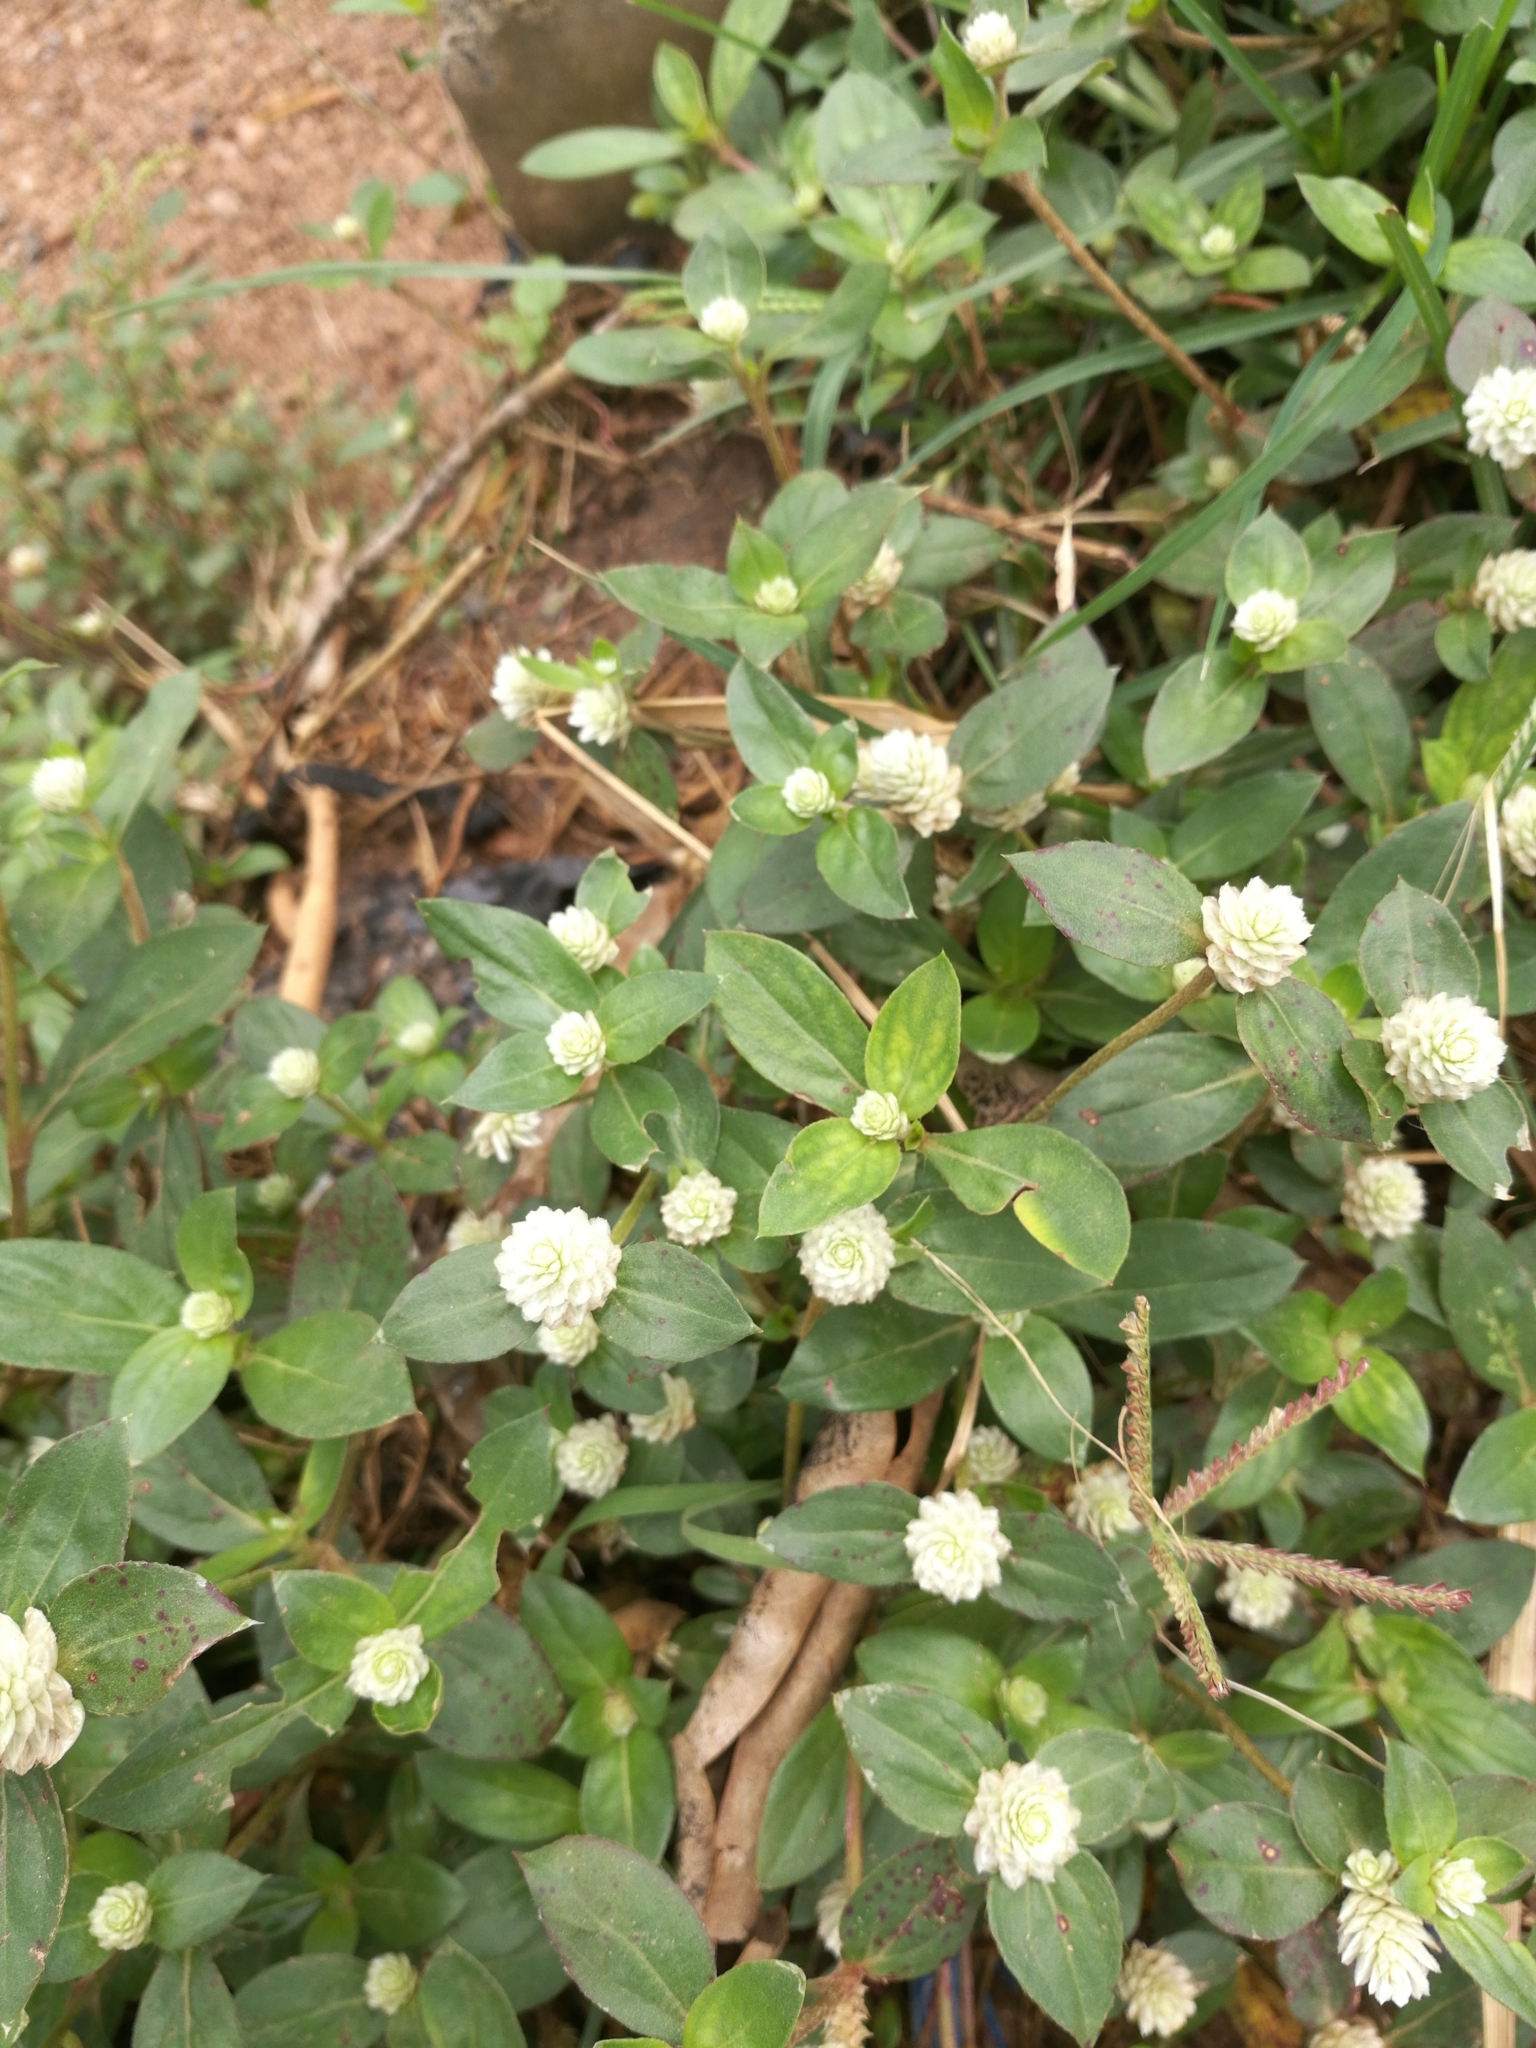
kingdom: Plantae
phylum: Tracheophyta
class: Magnoliopsida
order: Caryophyllales
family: Amaranthaceae
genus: Gomphrena
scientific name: Gomphrena celosioides
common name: Gomphrena-weed
